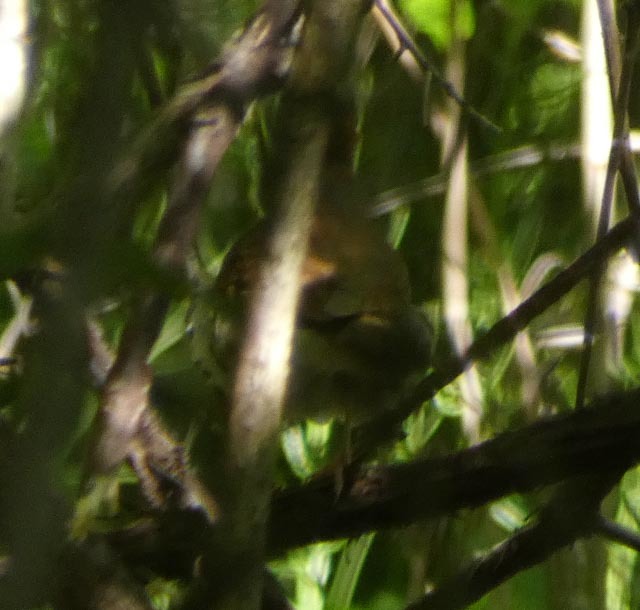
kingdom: Animalia
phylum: Chordata
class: Aves
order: Passeriformes
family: Turdidae
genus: Hylocichla
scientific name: Hylocichla mustelina
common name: Wood thrush
